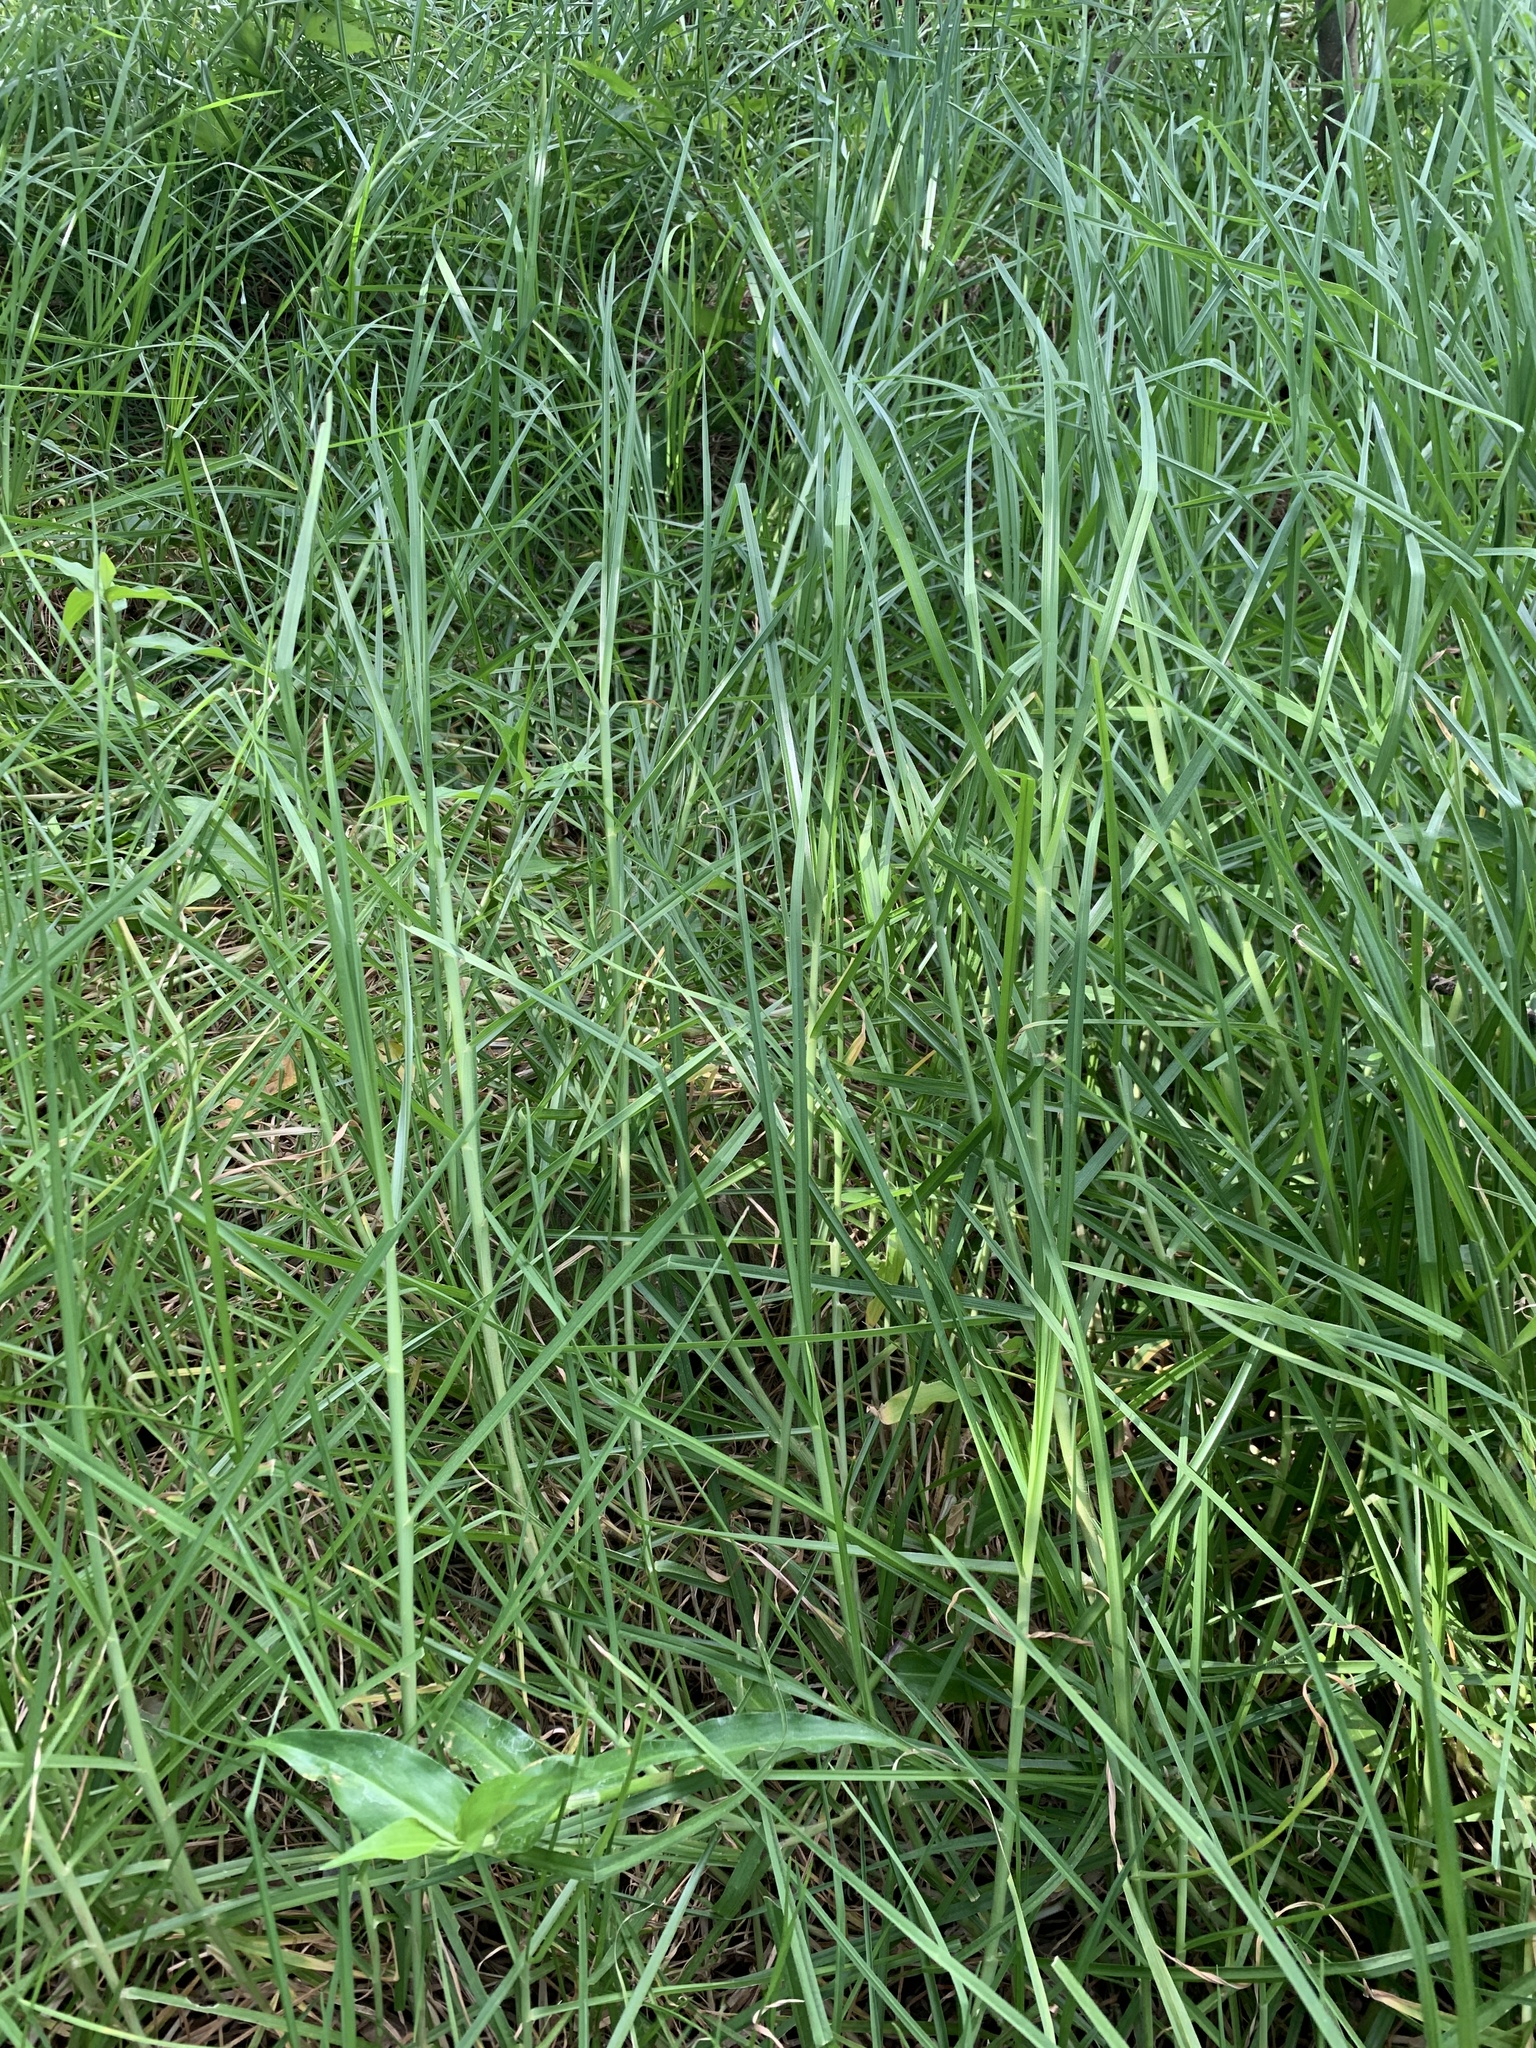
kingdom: Plantae
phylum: Tracheophyta
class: Liliopsida
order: Poales
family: Poaceae
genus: Cenchrus
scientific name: Cenchrus clandestinus
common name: Kikuyugrass
